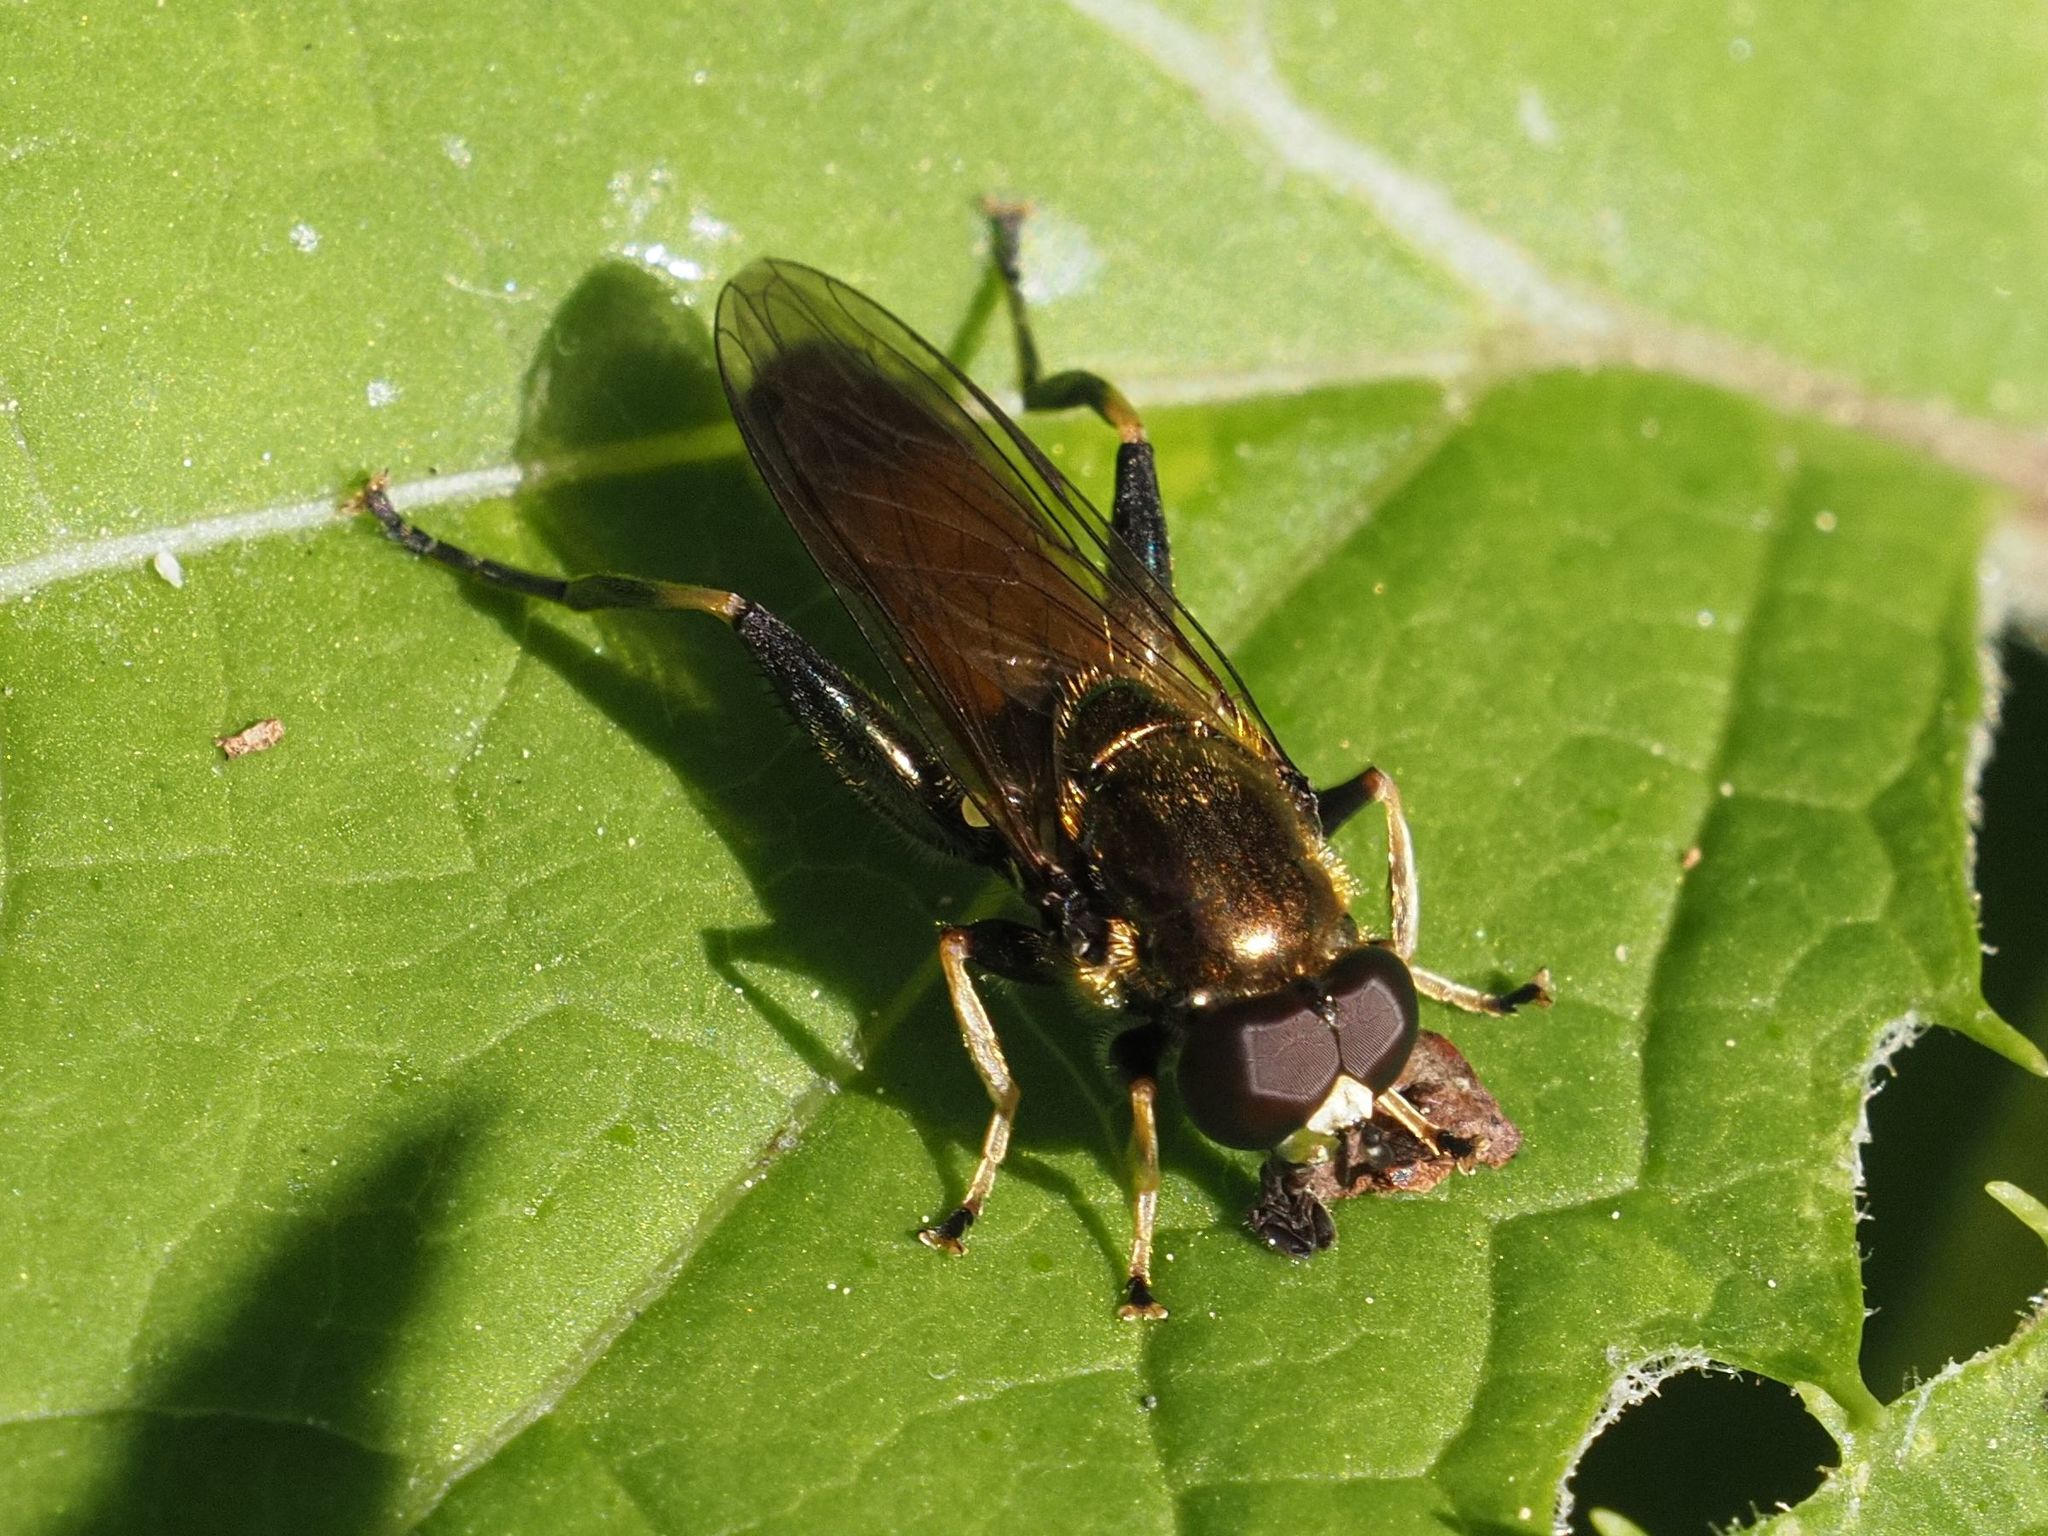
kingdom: Animalia
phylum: Arthropoda
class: Insecta
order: Diptera
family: Syrphidae
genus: Xylota
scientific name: Xylota segnis
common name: Brown-toed forest fly
